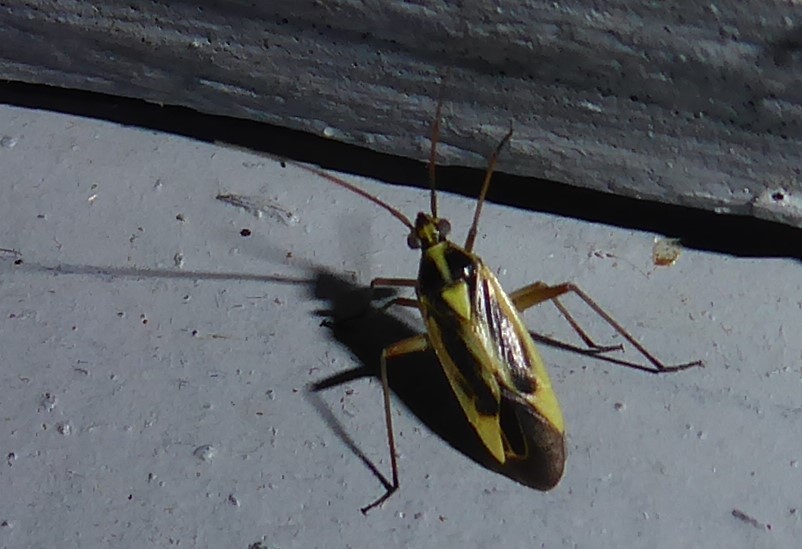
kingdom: Animalia
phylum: Arthropoda
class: Insecta
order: Hemiptera
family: Miridae
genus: Stenotus
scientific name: Stenotus binotatus
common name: Plant bug
